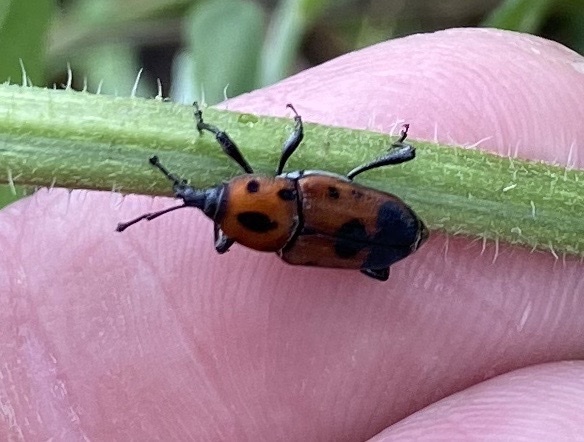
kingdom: Animalia
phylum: Arthropoda
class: Insecta
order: Coleoptera
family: Dryophthoridae
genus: Rhodobaenus
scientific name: Rhodobaenus quinquepunctatus
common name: Cocklebur weevil
